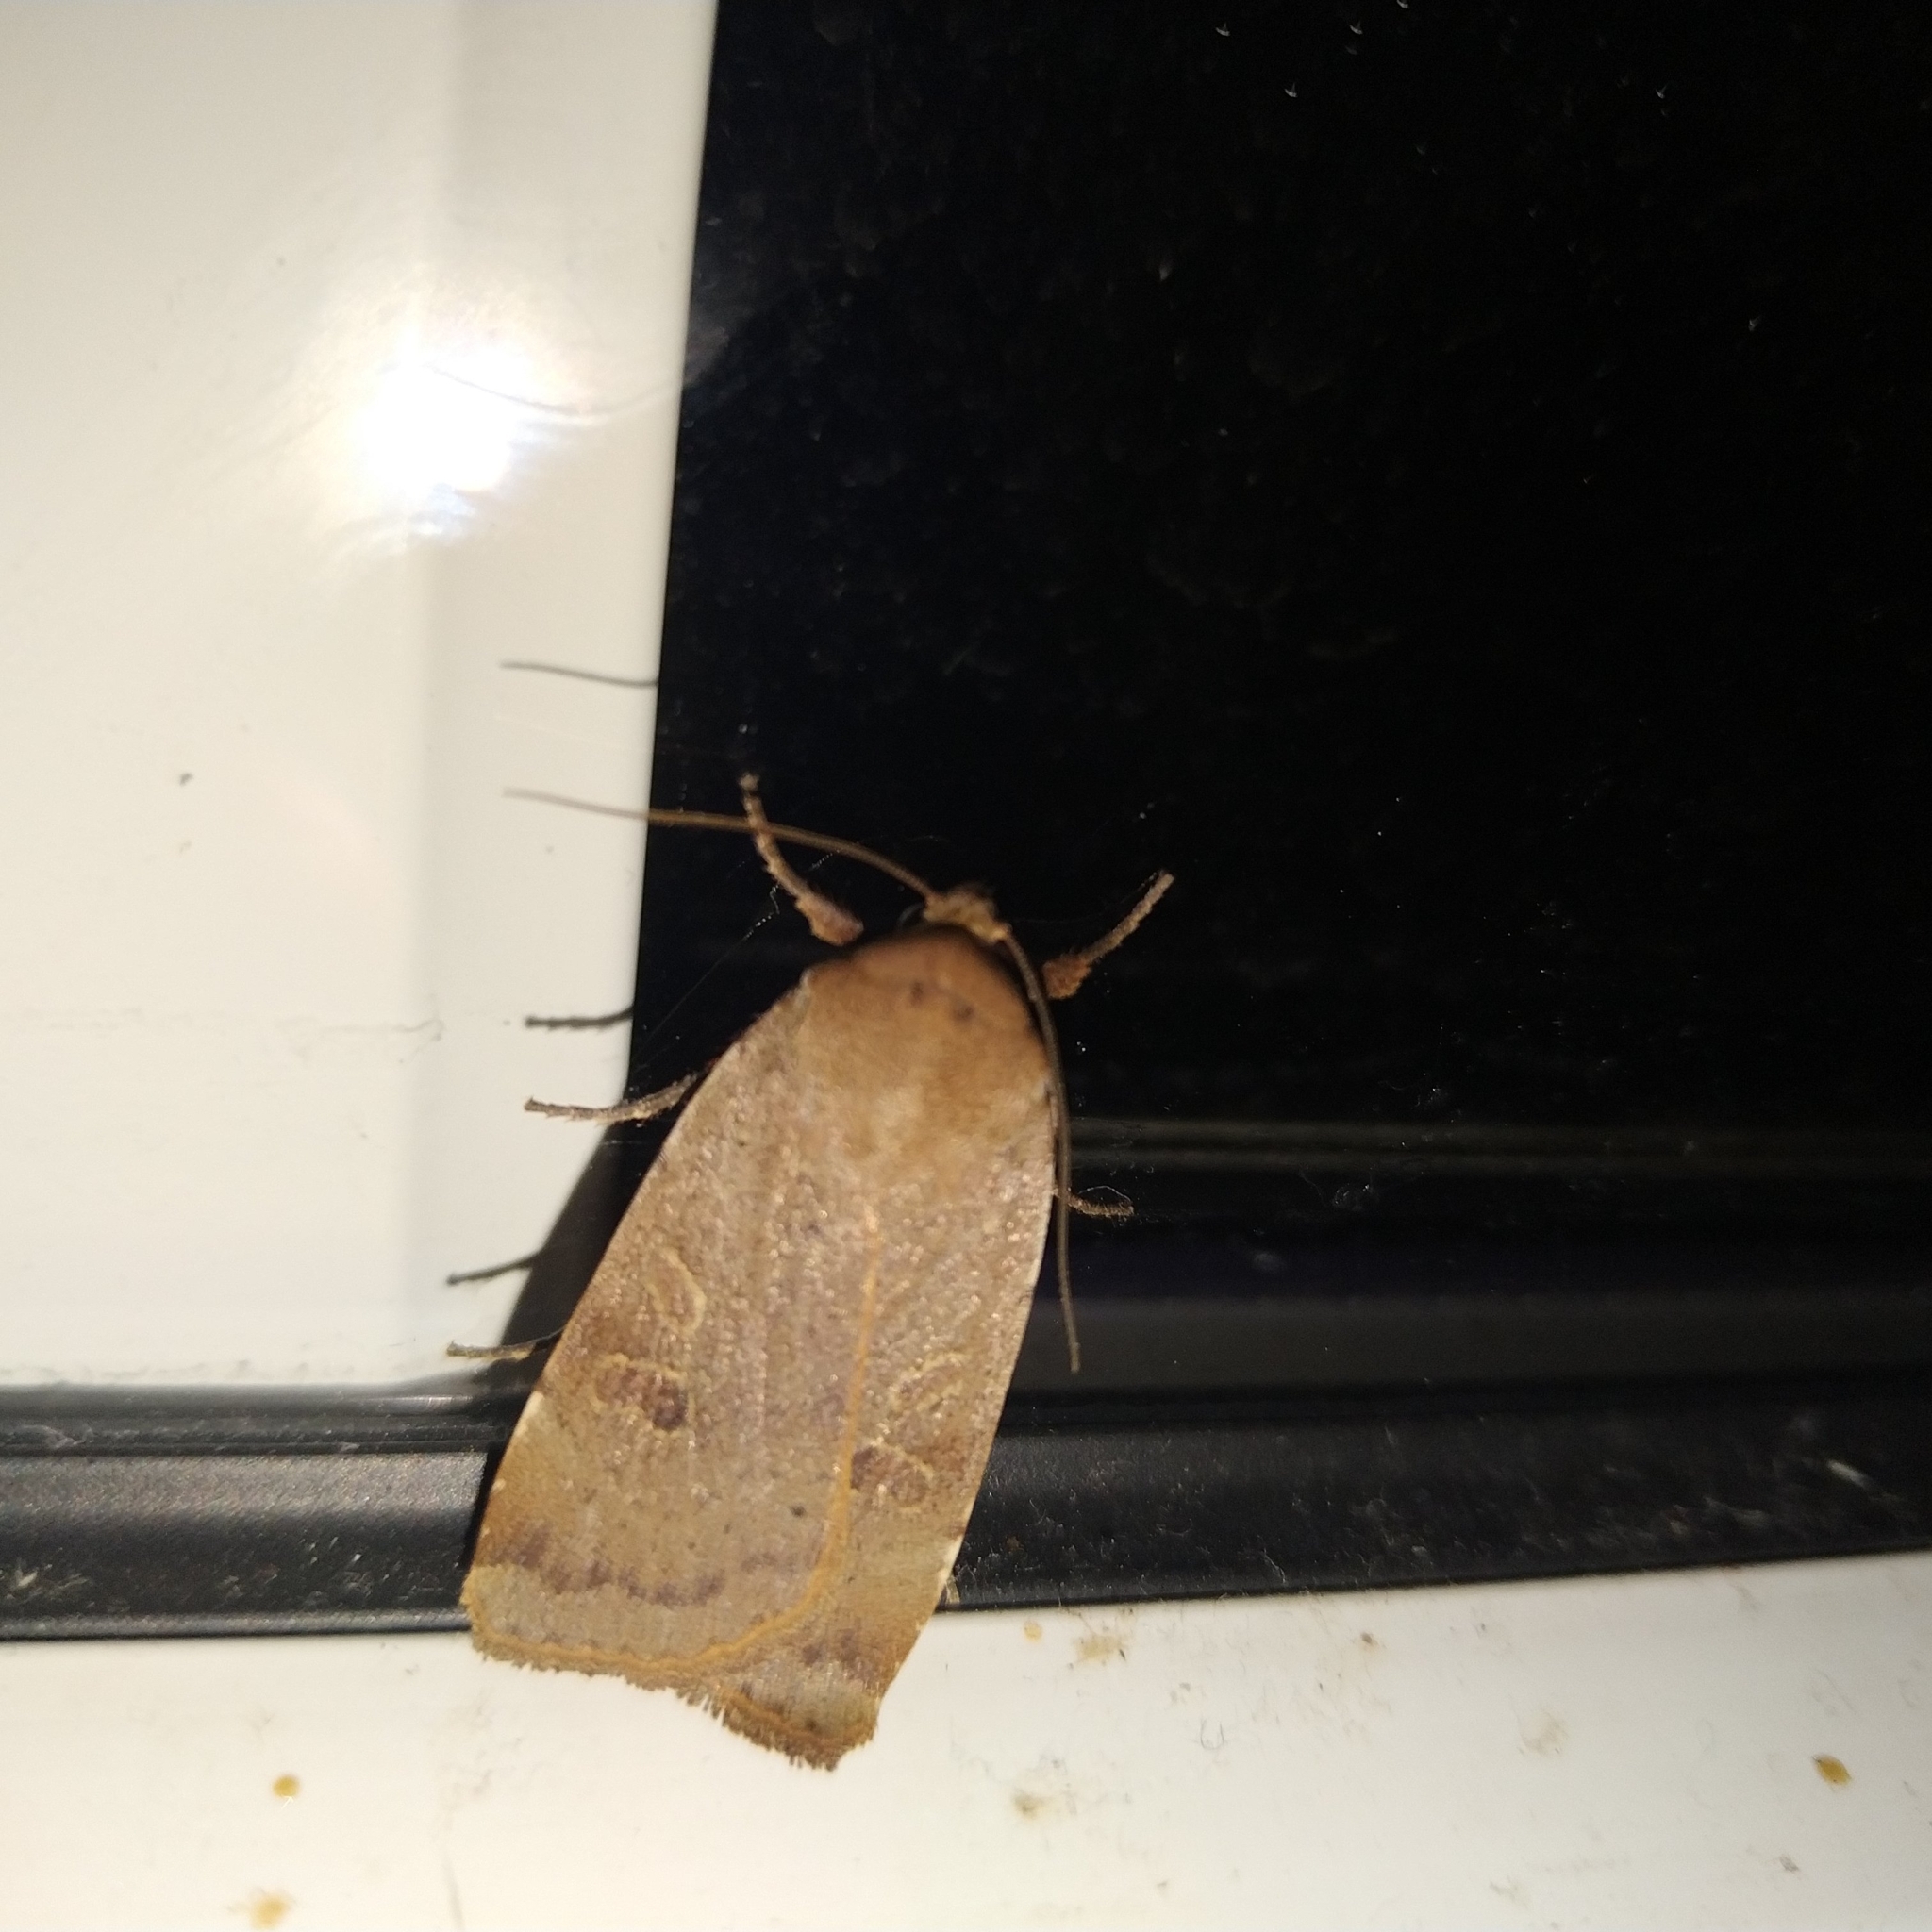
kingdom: Animalia
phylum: Arthropoda
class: Insecta
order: Lepidoptera
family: Noctuidae
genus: Noctua
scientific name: Noctua comes
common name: Lesser yellow underwing
